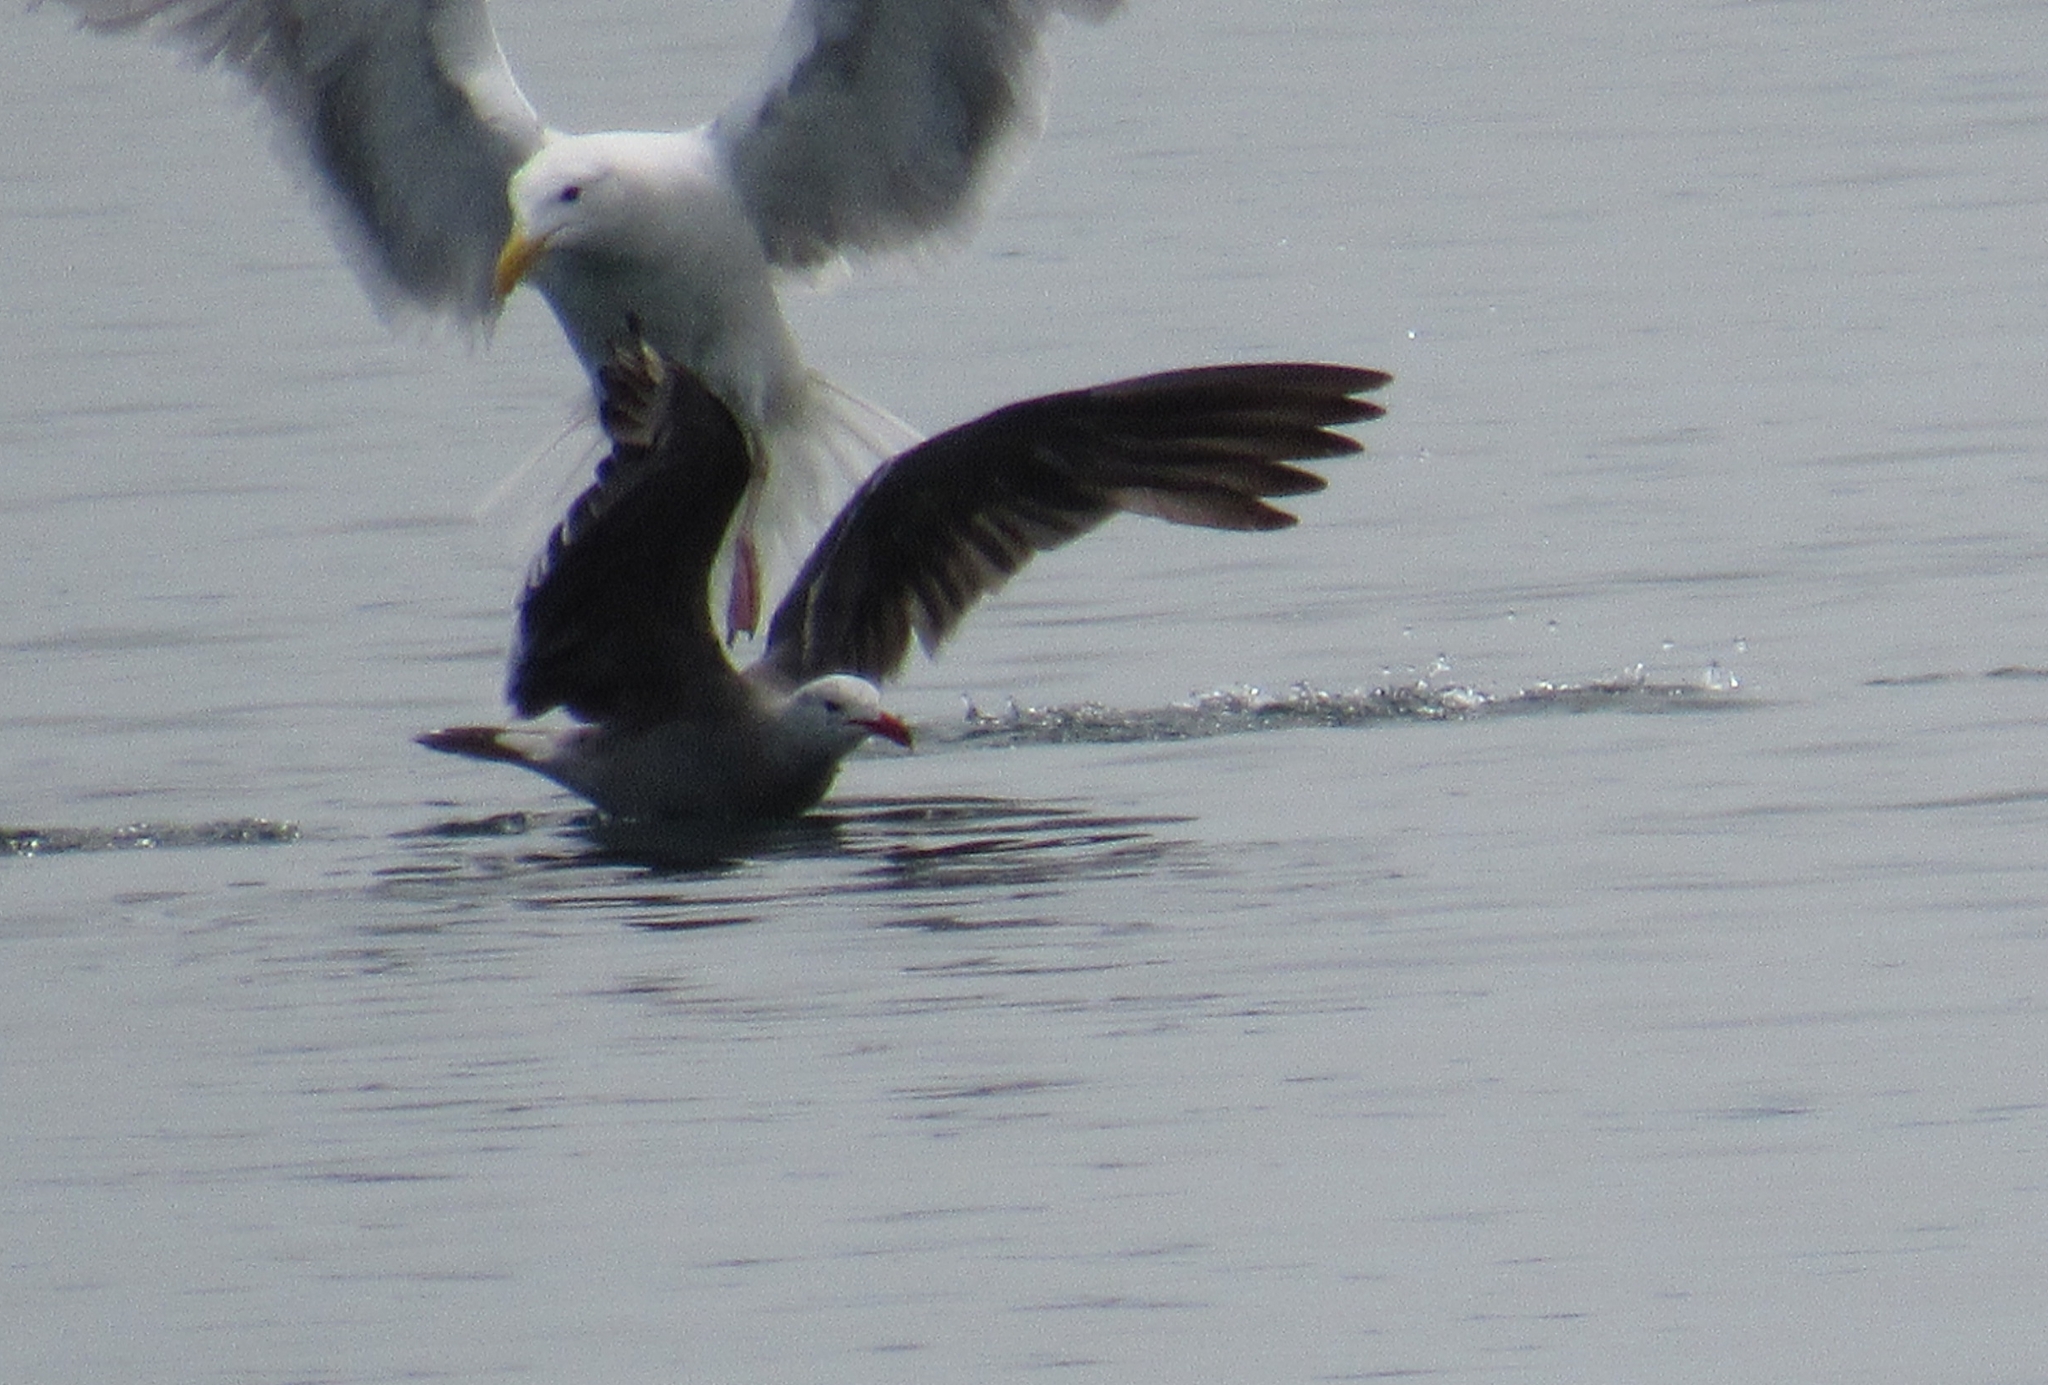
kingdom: Animalia
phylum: Chordata
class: Aves
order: Charadriiformes
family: Laridae
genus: Larus
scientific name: Larus heermanni
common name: Heermann's gull
